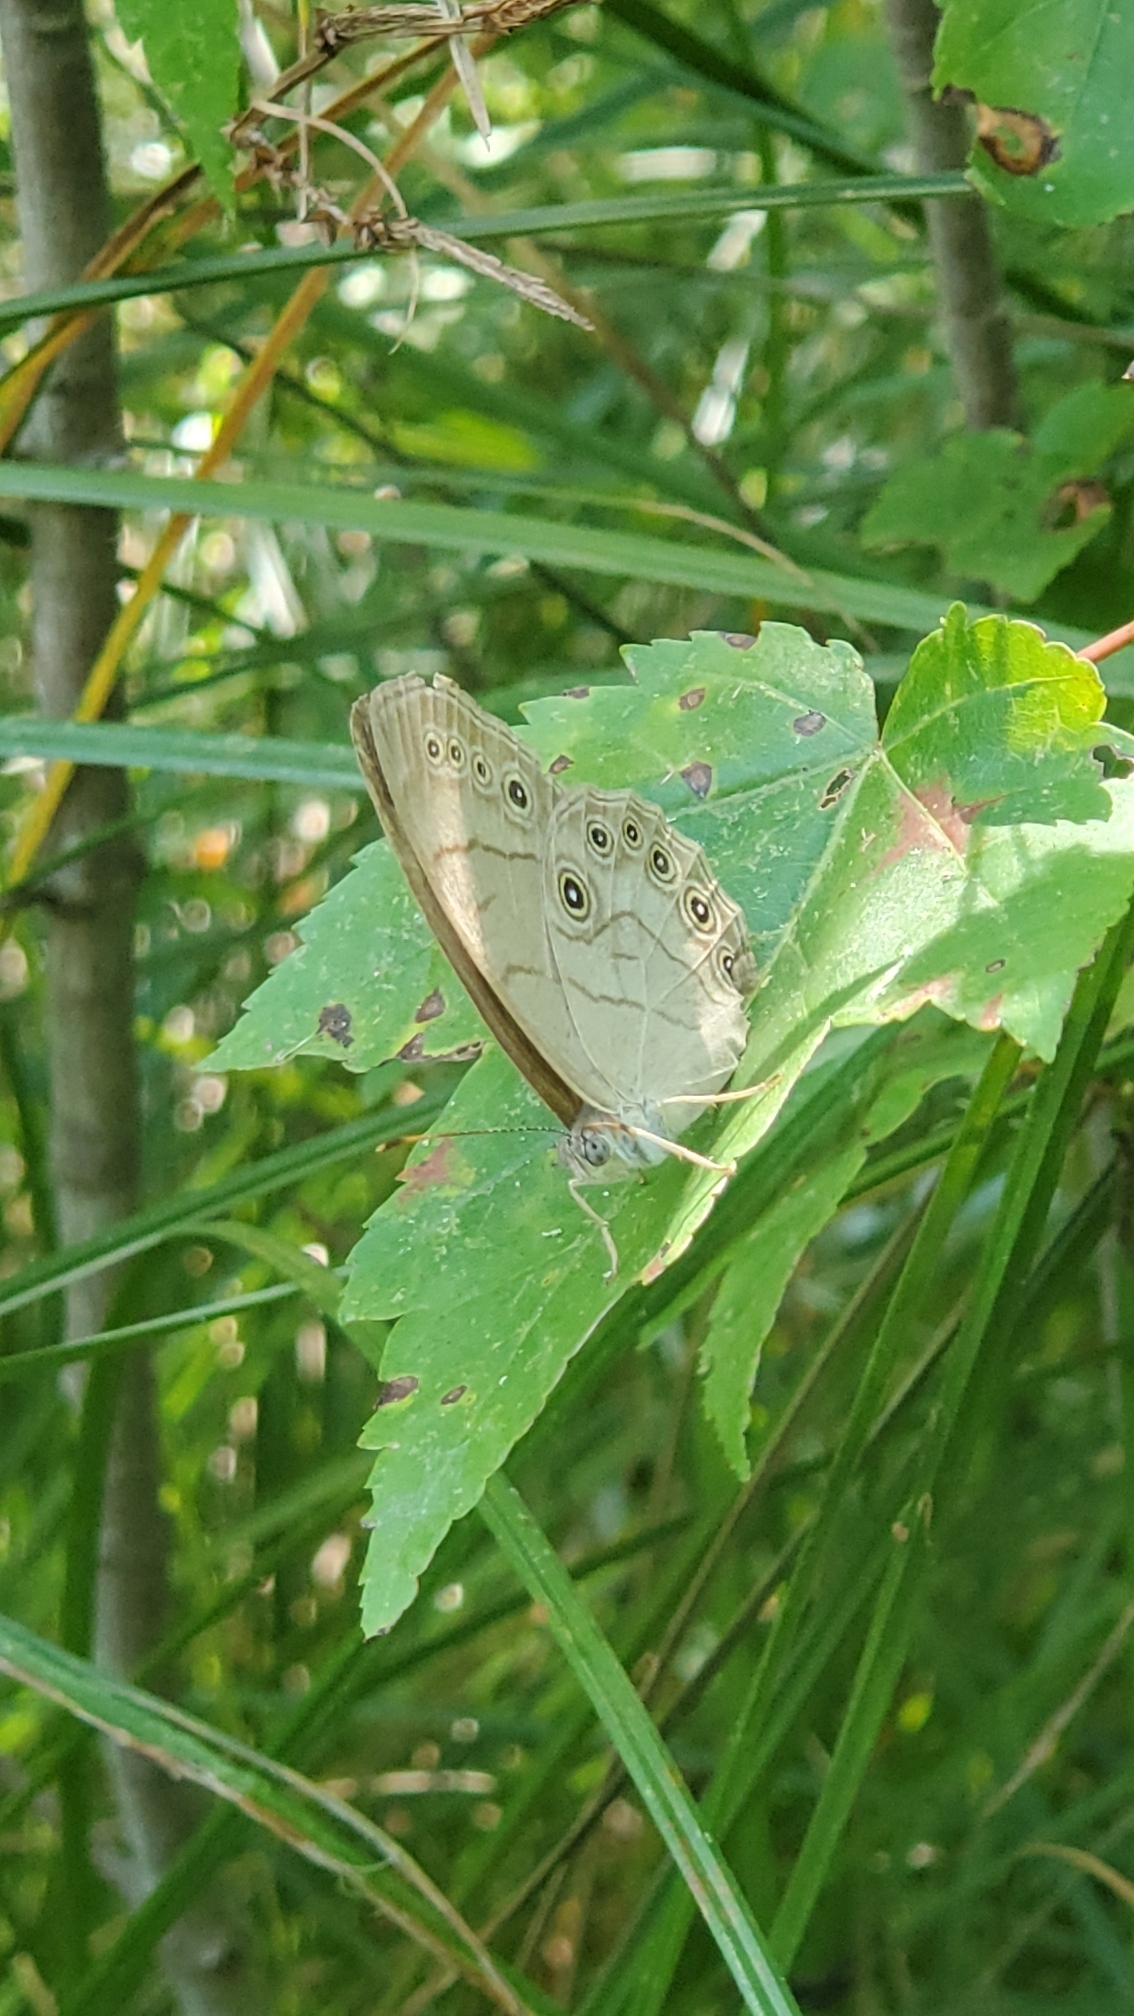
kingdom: Animalia
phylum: Arthropoda
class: Insecta
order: Lepidoptera
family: Nymphalidae
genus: Lethe
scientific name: Lethe eurydice
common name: Eyed brown
